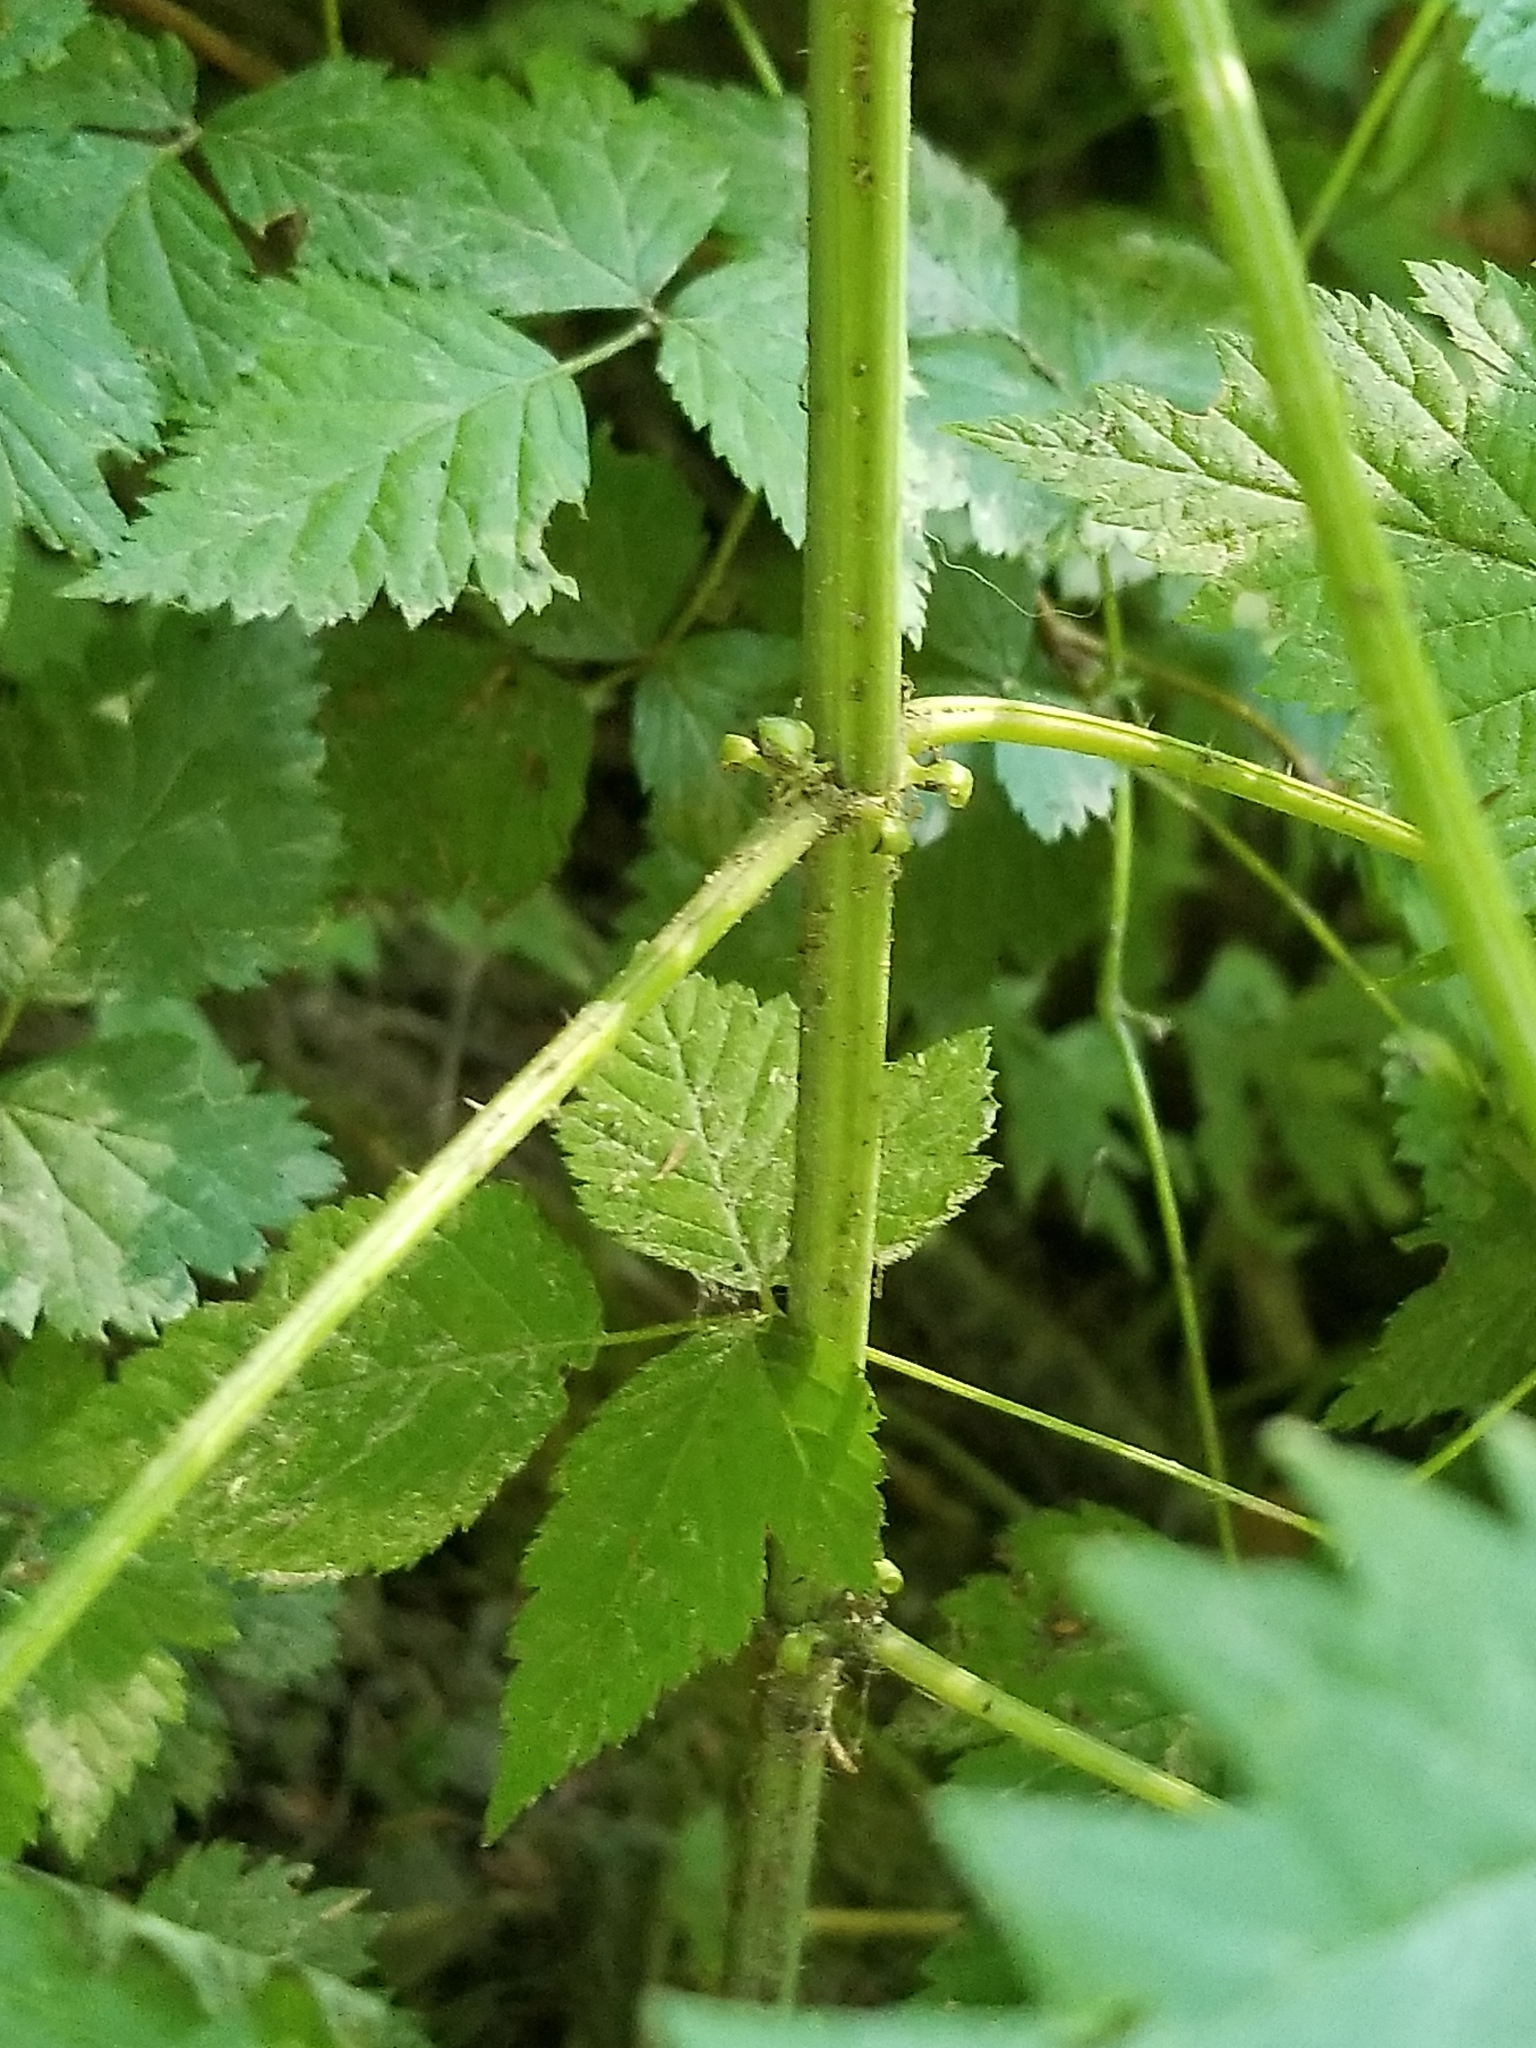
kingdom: Plantae
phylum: Tracheophyta
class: Magnoliopsida
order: Rosales
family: Urticaceae
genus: Urtica
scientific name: Urtica dioica
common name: Common nettle
